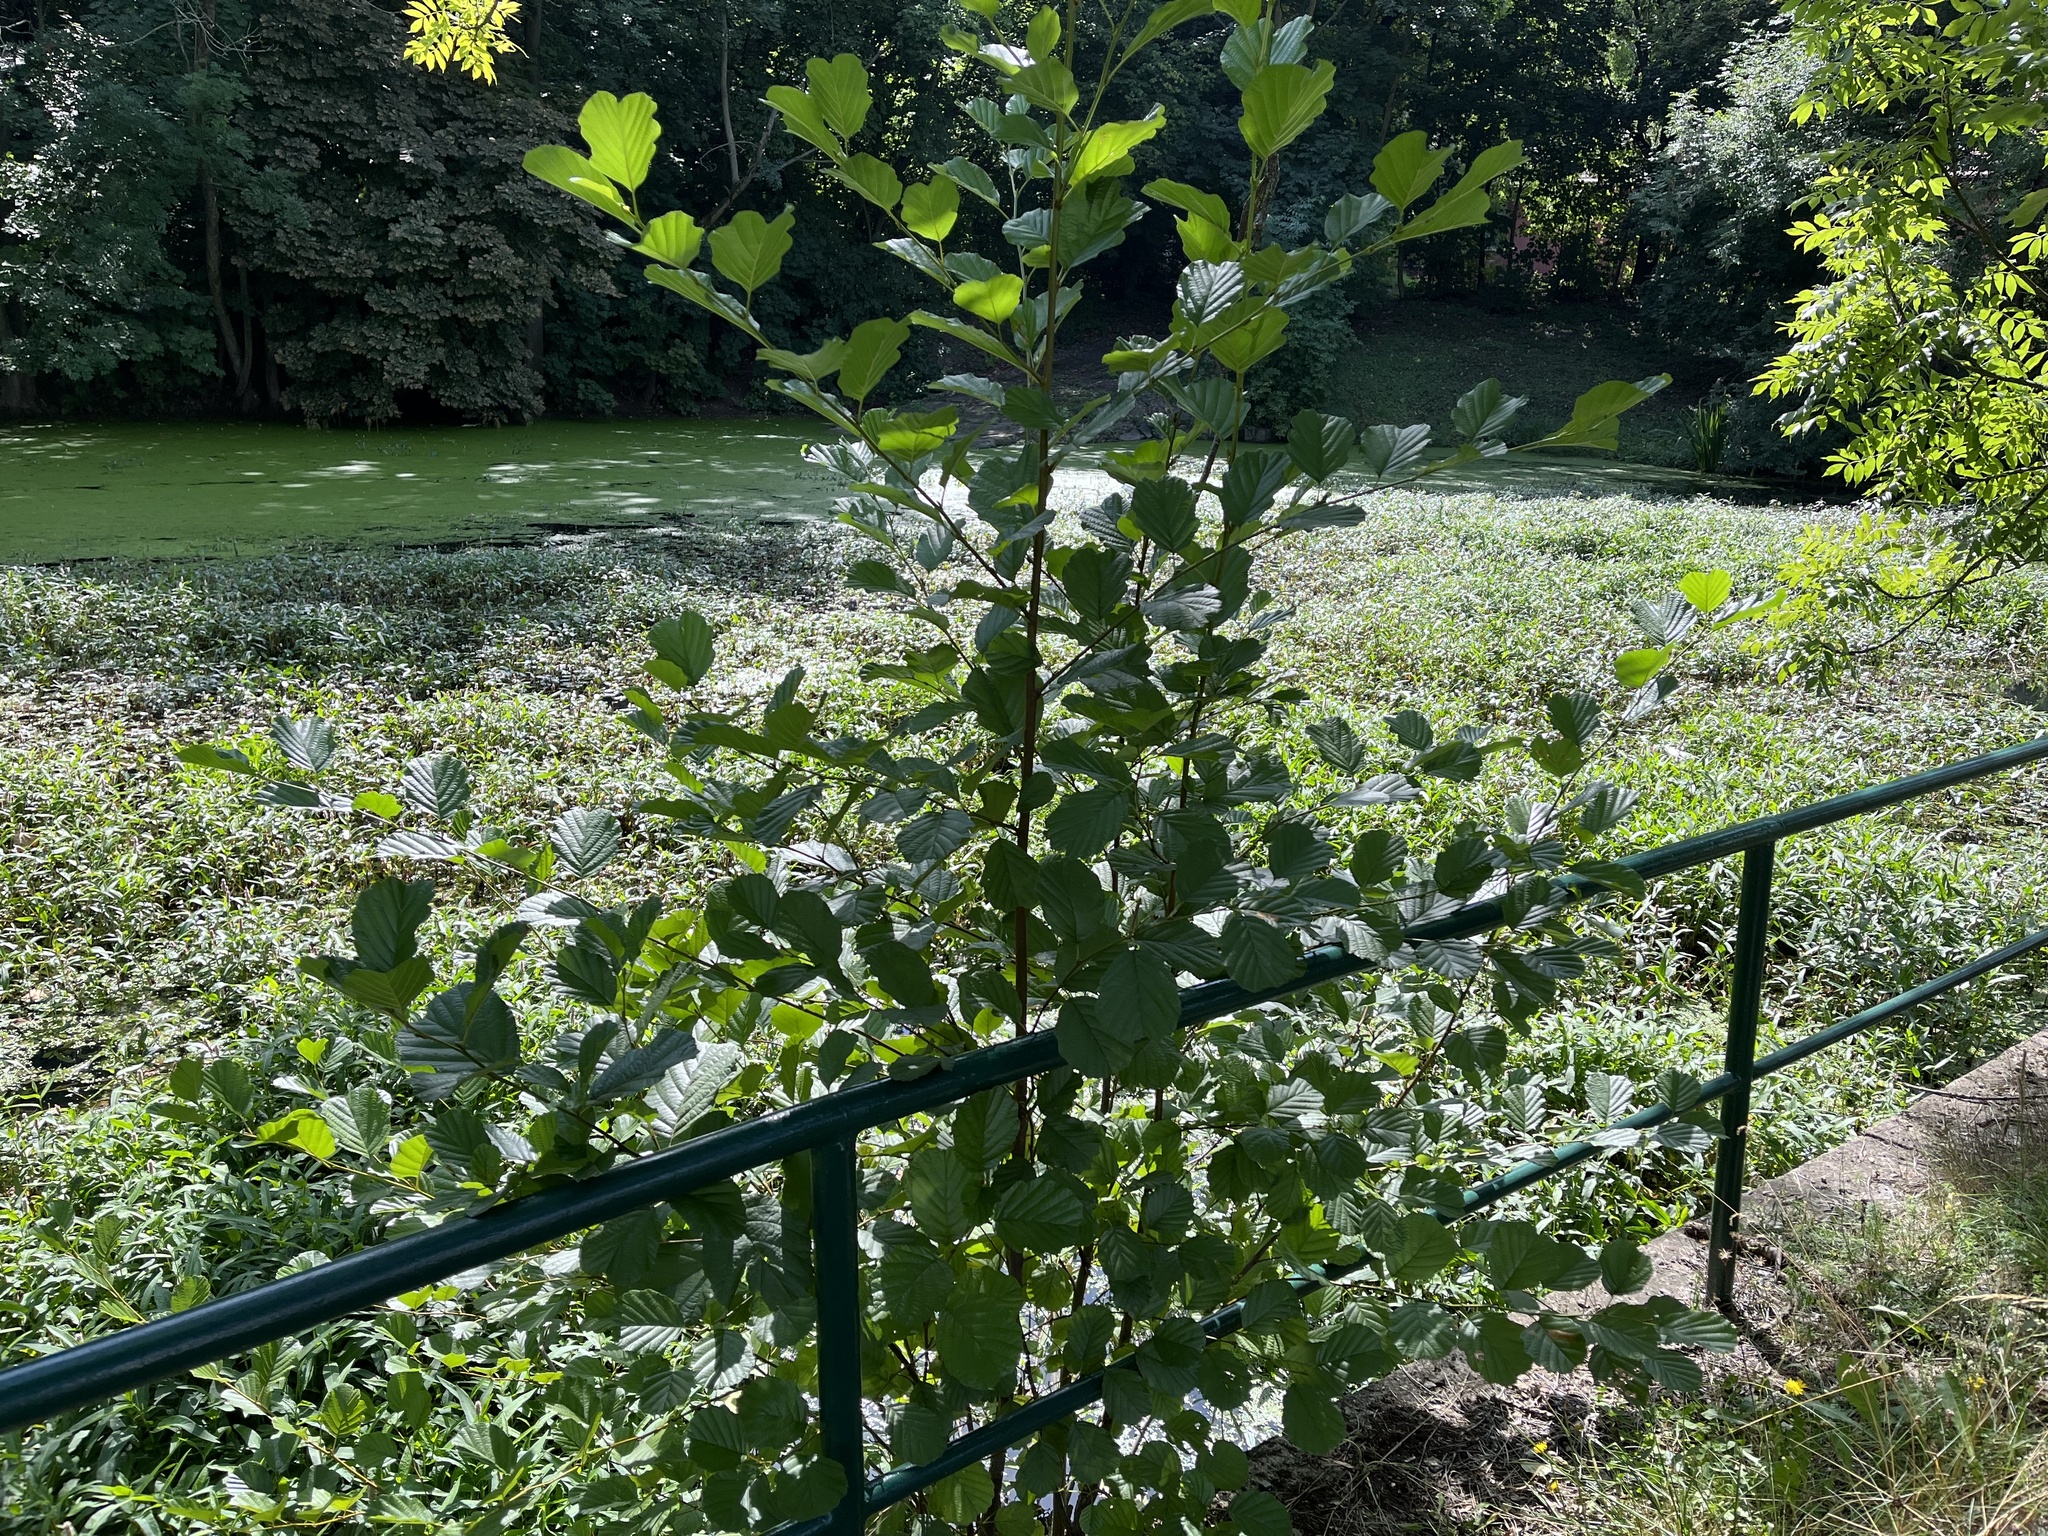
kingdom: Plantae
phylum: Tracheophyta
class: Magnoliopsida
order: Fagales
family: Betulaceae
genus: Alnus
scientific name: Alnus glutinosa
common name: Black alder
